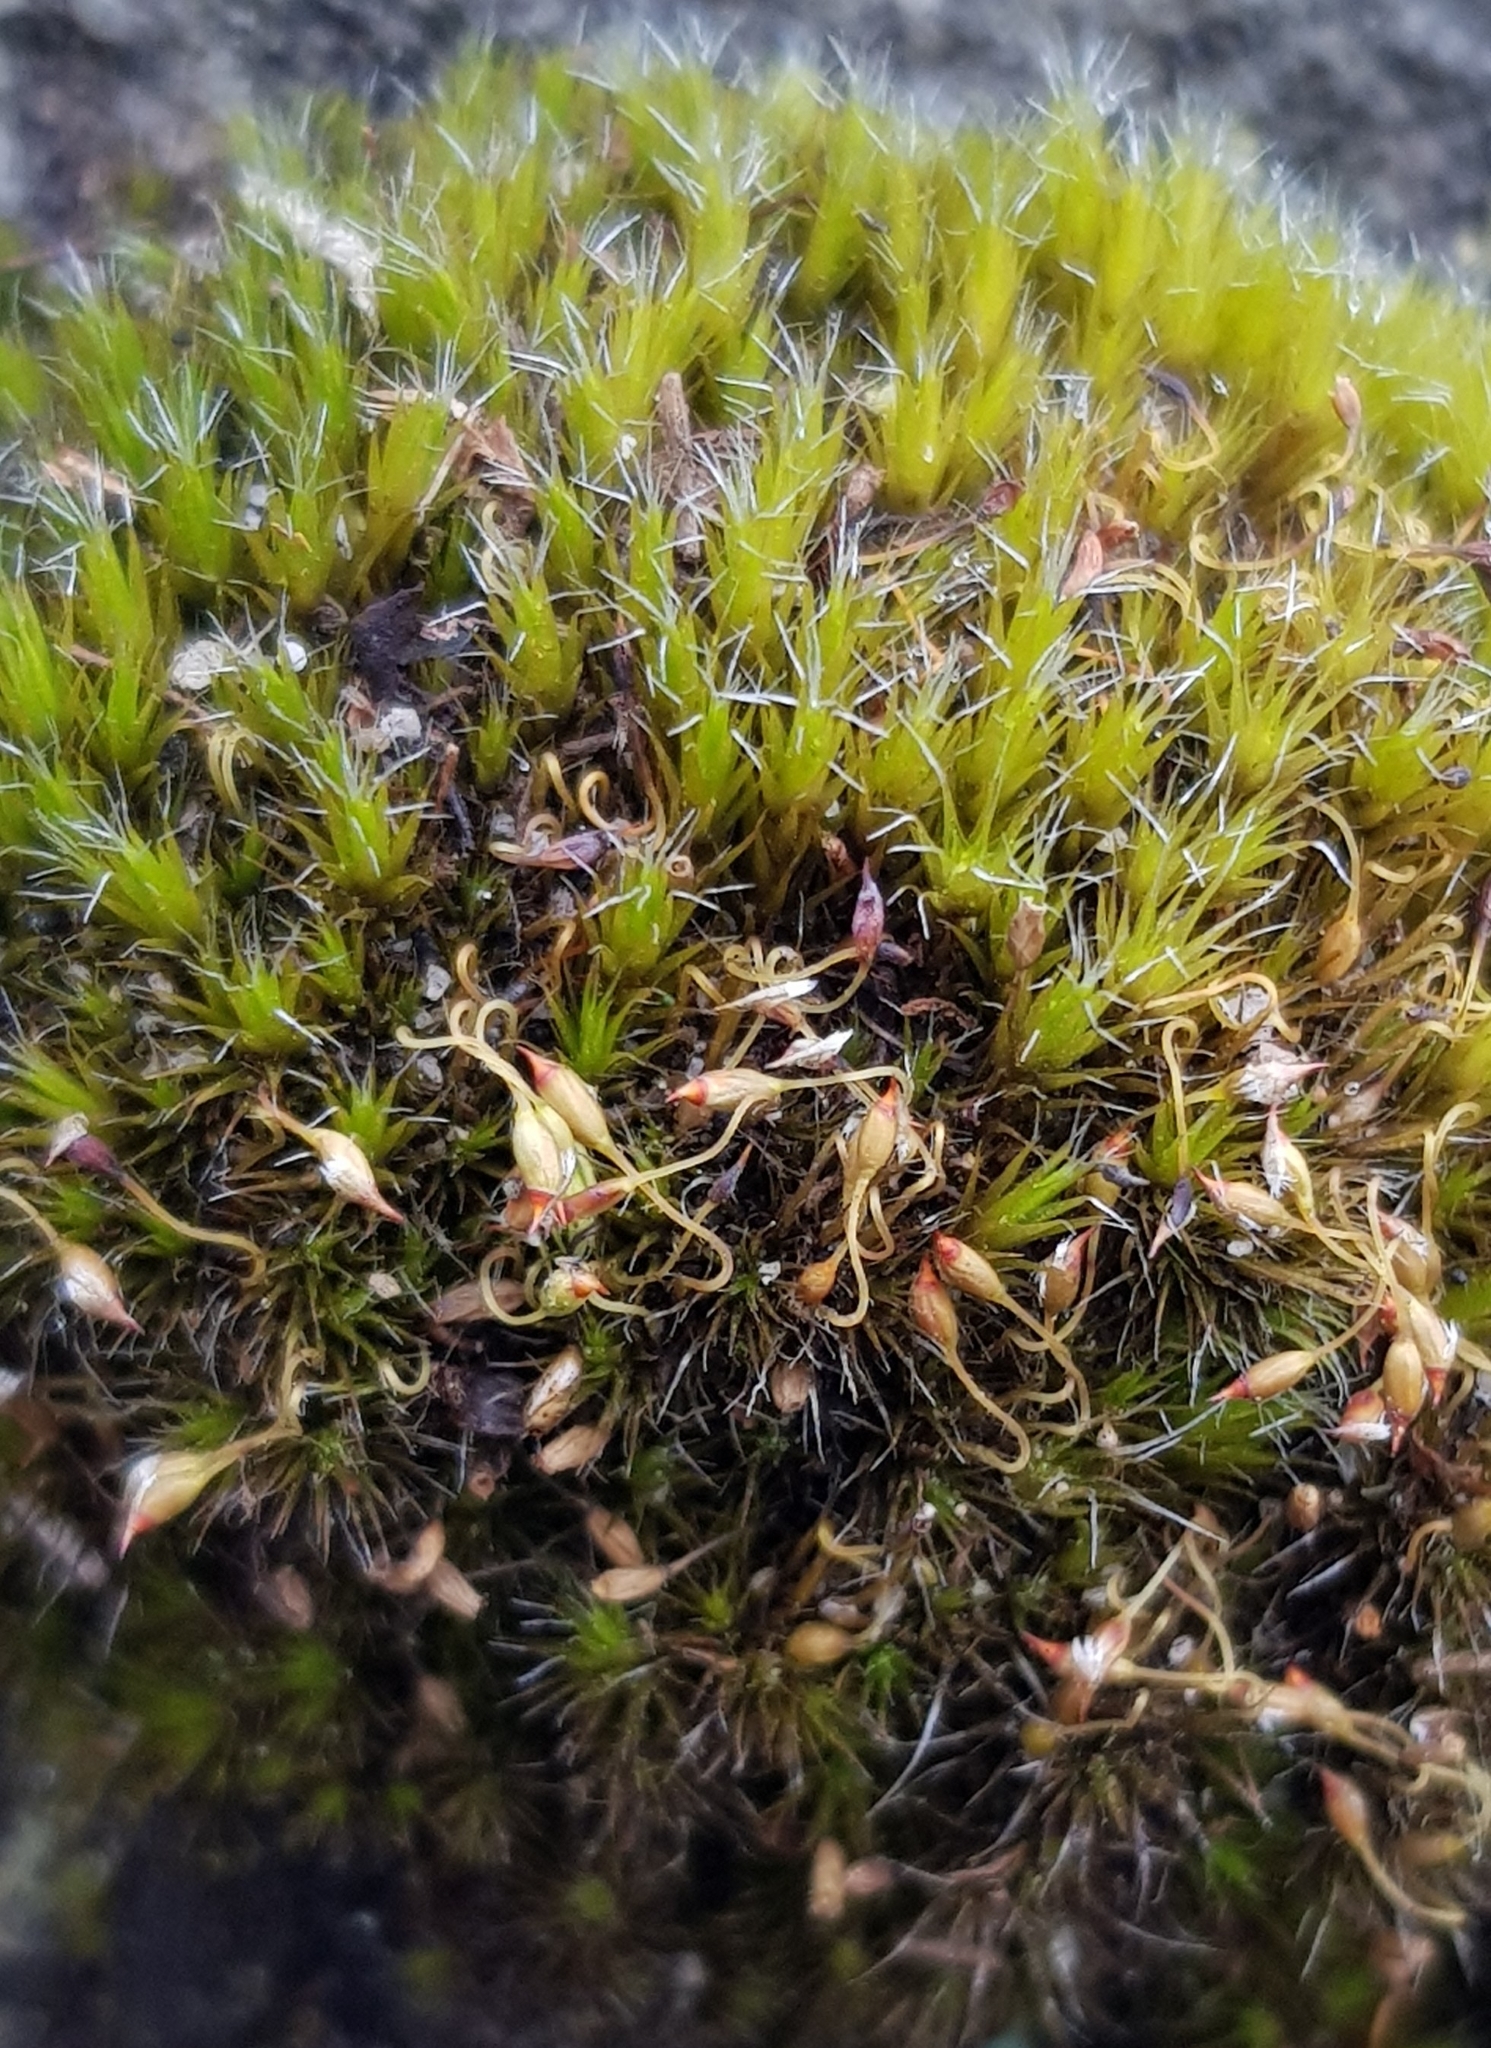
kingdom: Plantae
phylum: Bryophyta
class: Bryopsida
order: Dicranales
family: Leucobryaceae
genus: Campylopus
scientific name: Campylopus introflexus
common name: Heath star moss
